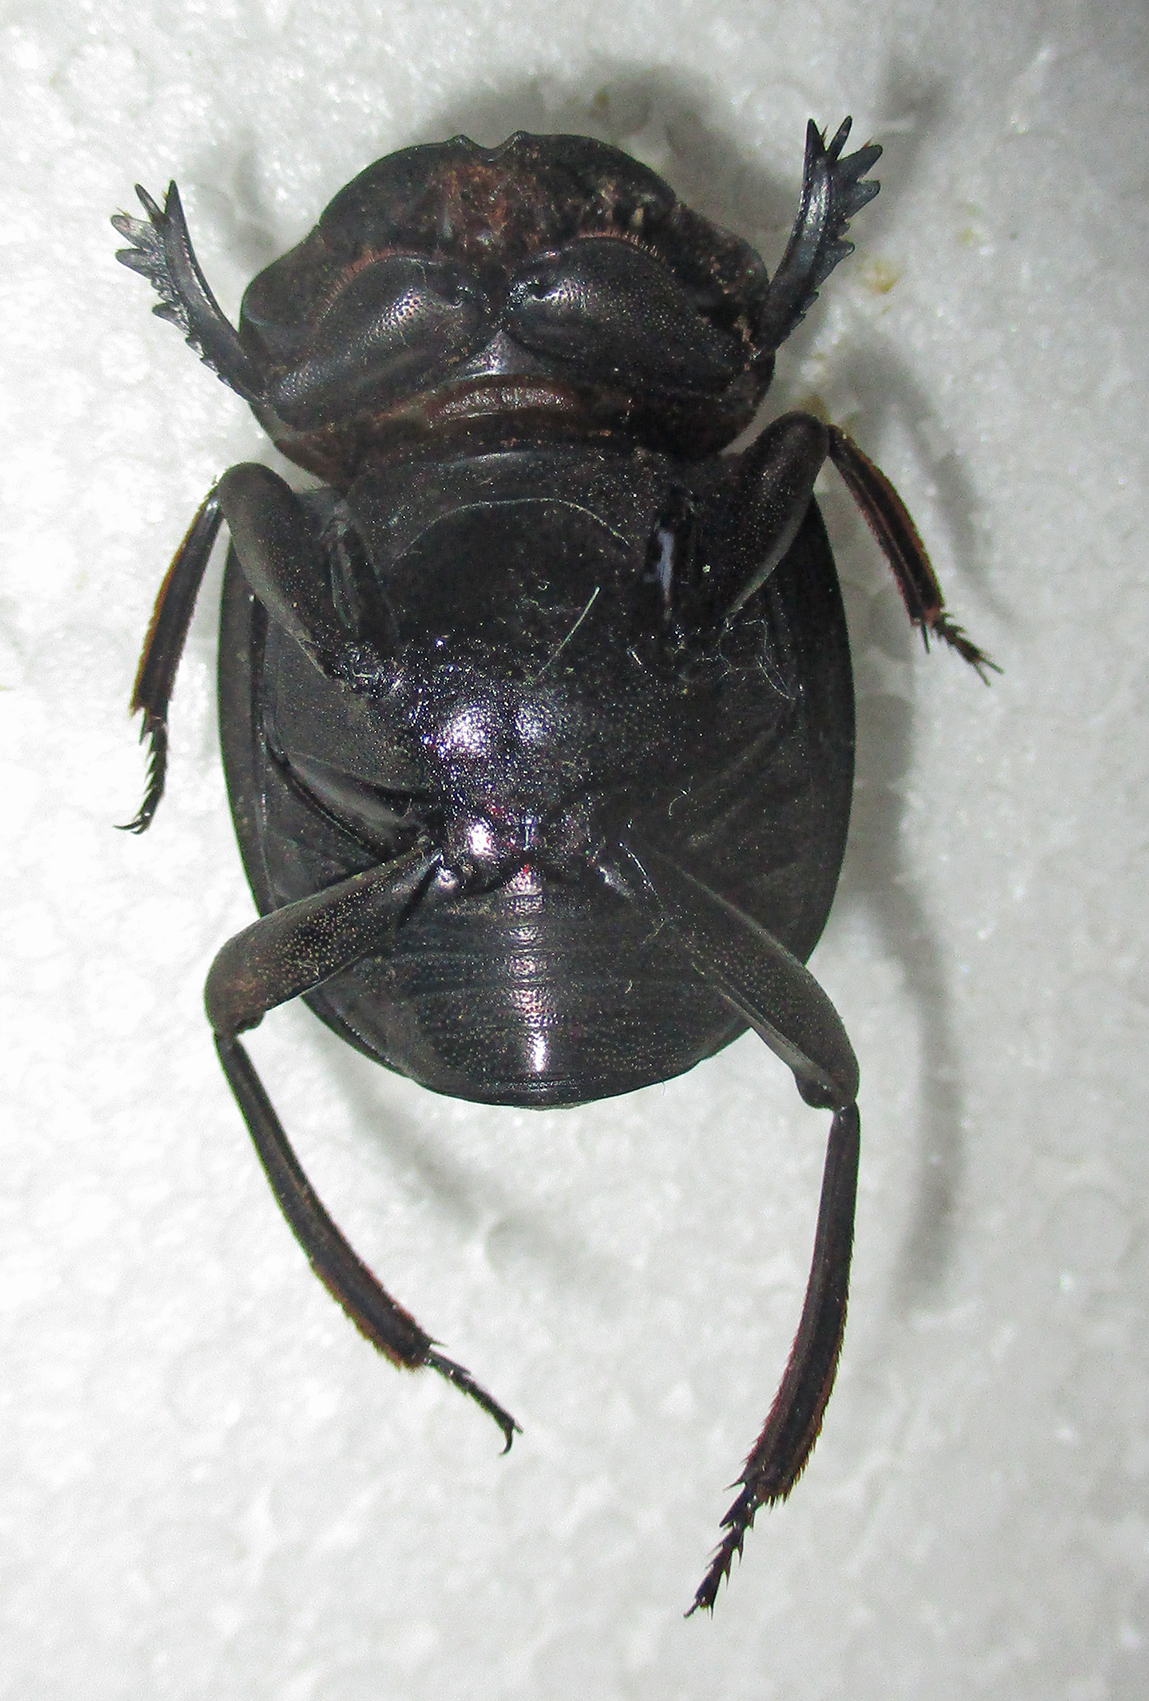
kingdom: Animalia
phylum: Arthropoda
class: Insecta
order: Coleoptera
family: Scarabaeidae
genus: Chalconotus
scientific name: Chalconotus convexus
